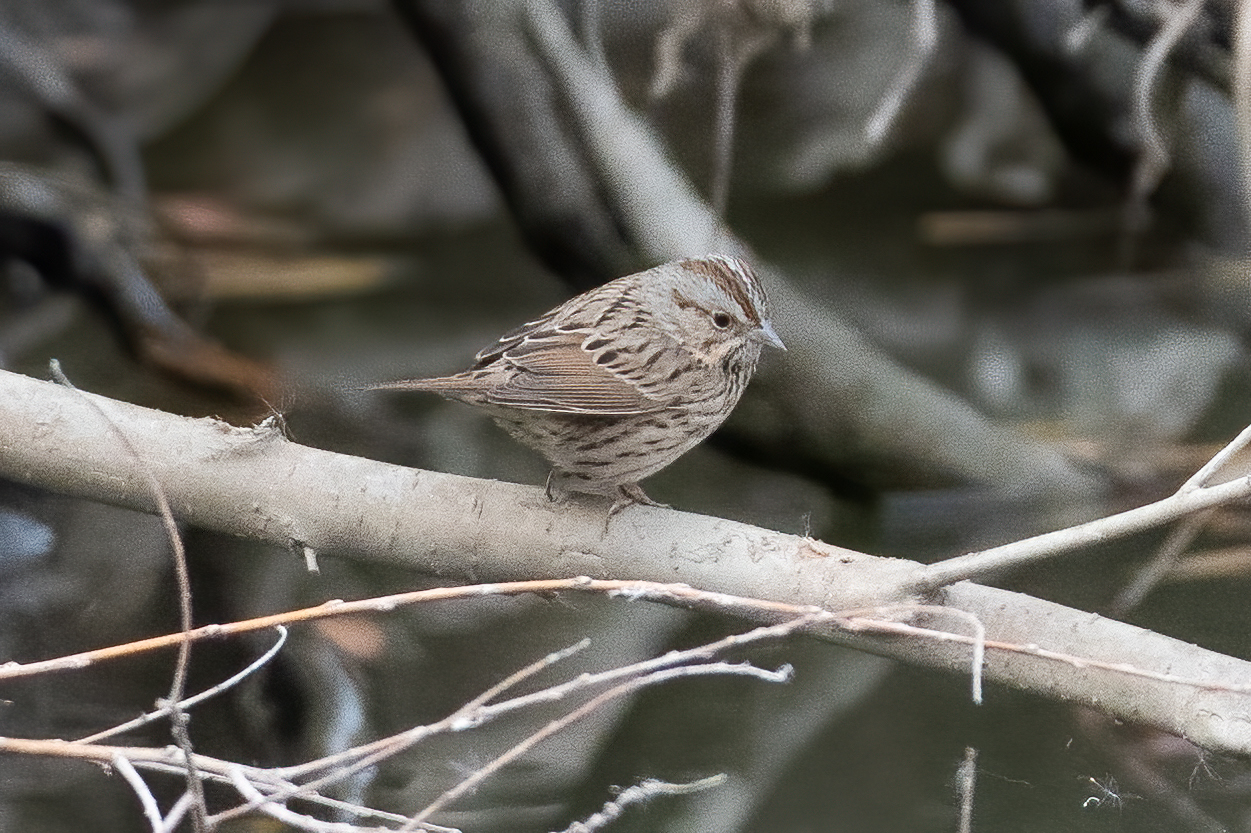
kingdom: Animalia
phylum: Chordata
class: Aves
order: Passeriformes
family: Passerellidae
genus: Melospiza
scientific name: Melospiza lincolnii
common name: Lincoln's sparrow
